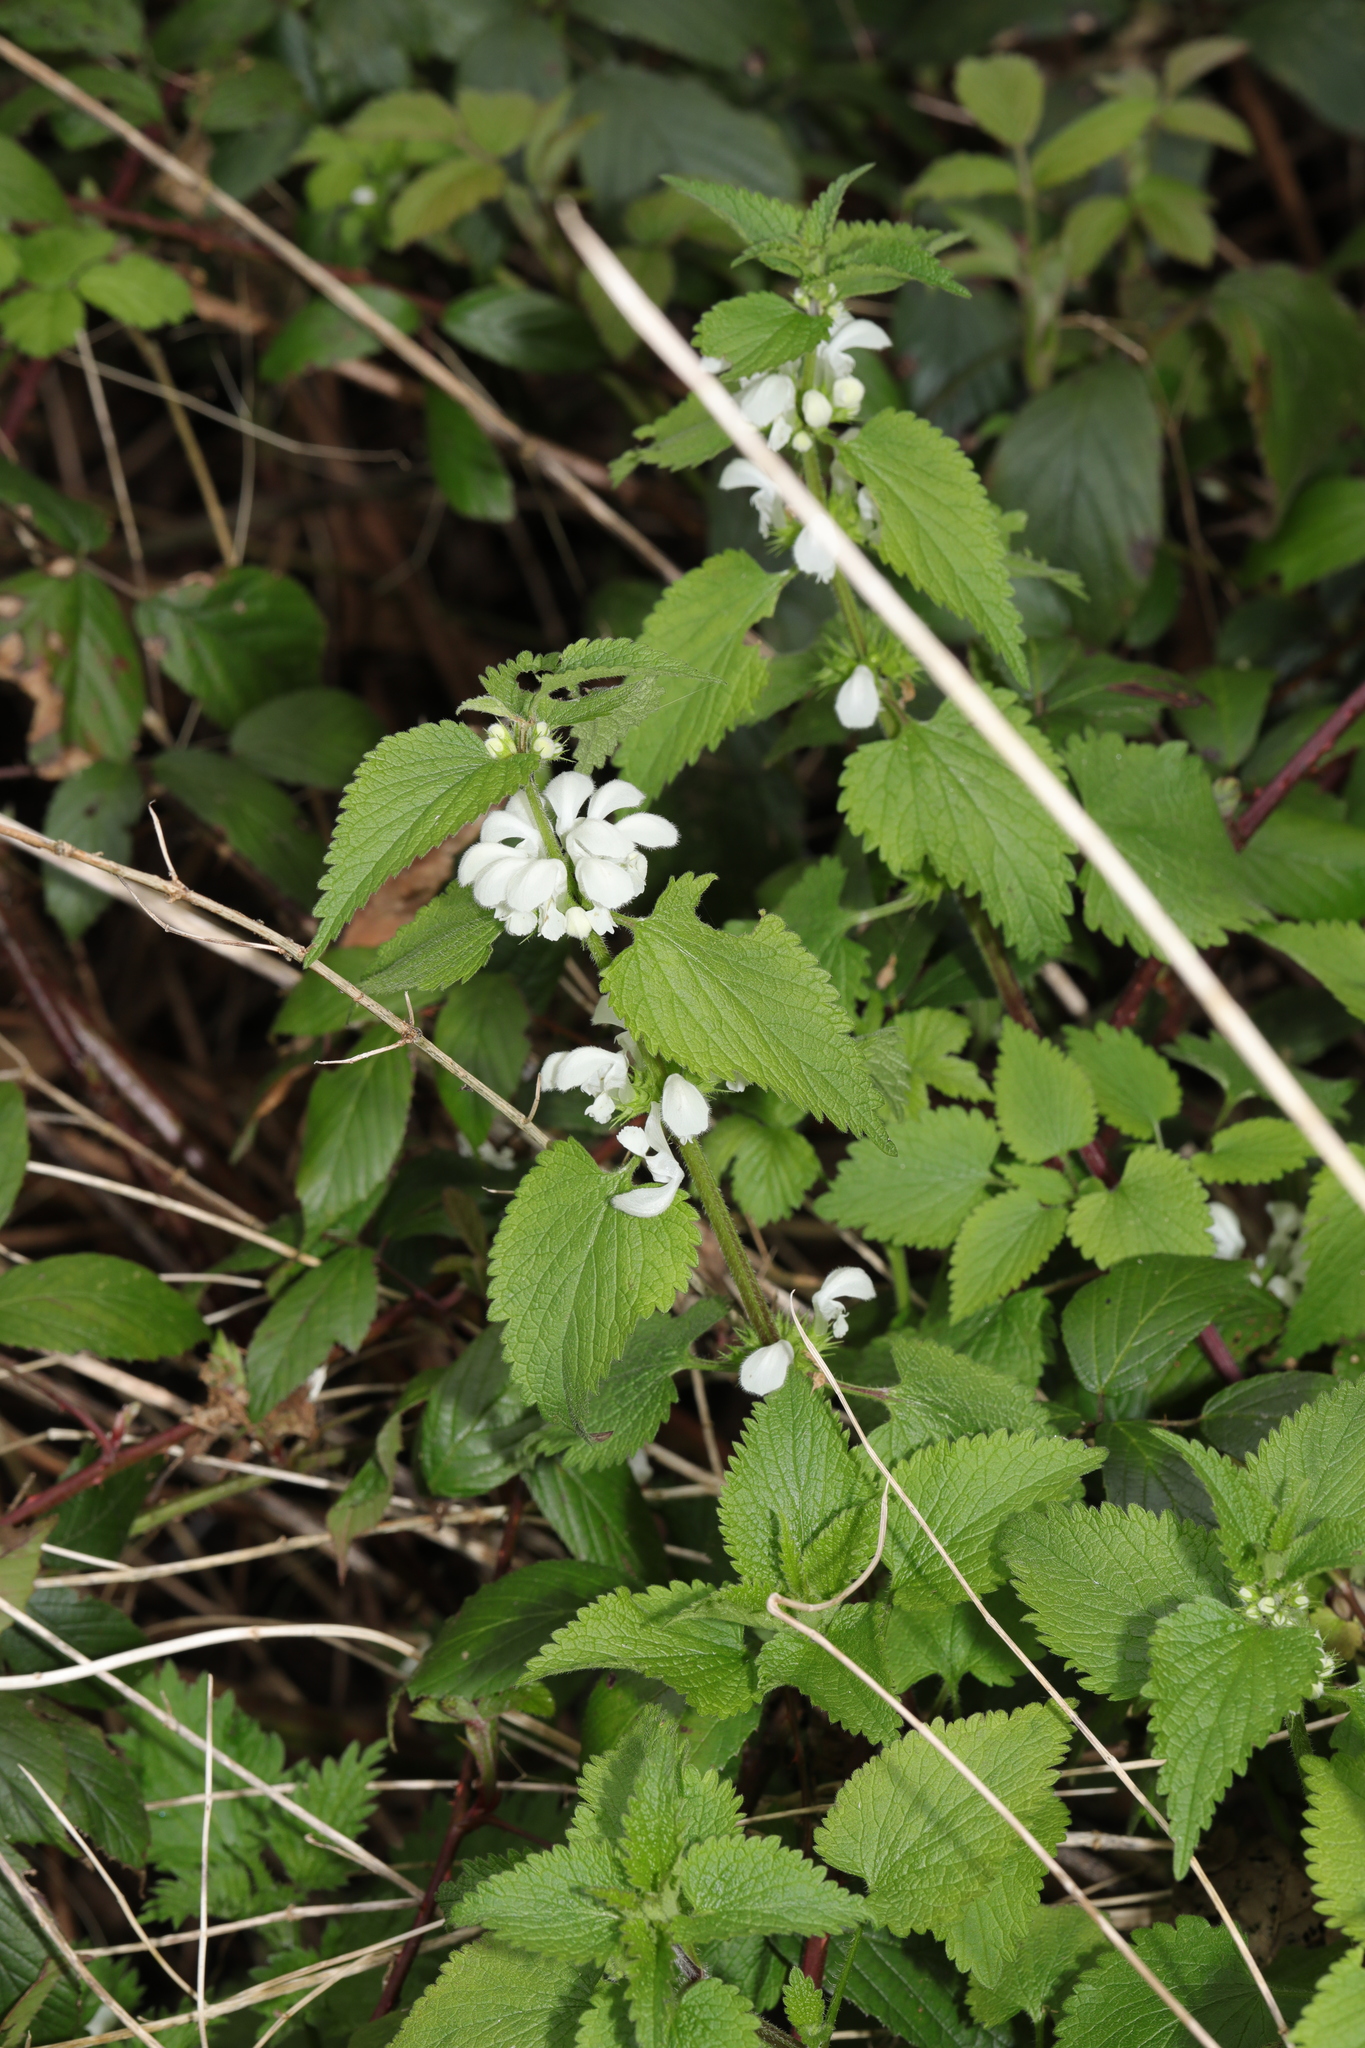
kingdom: Plantae
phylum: Tracheophyta
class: Magnoliopsida
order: Lamiales
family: Lamiaceae
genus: Lamium
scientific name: Lamium album
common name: White dead-nettle
